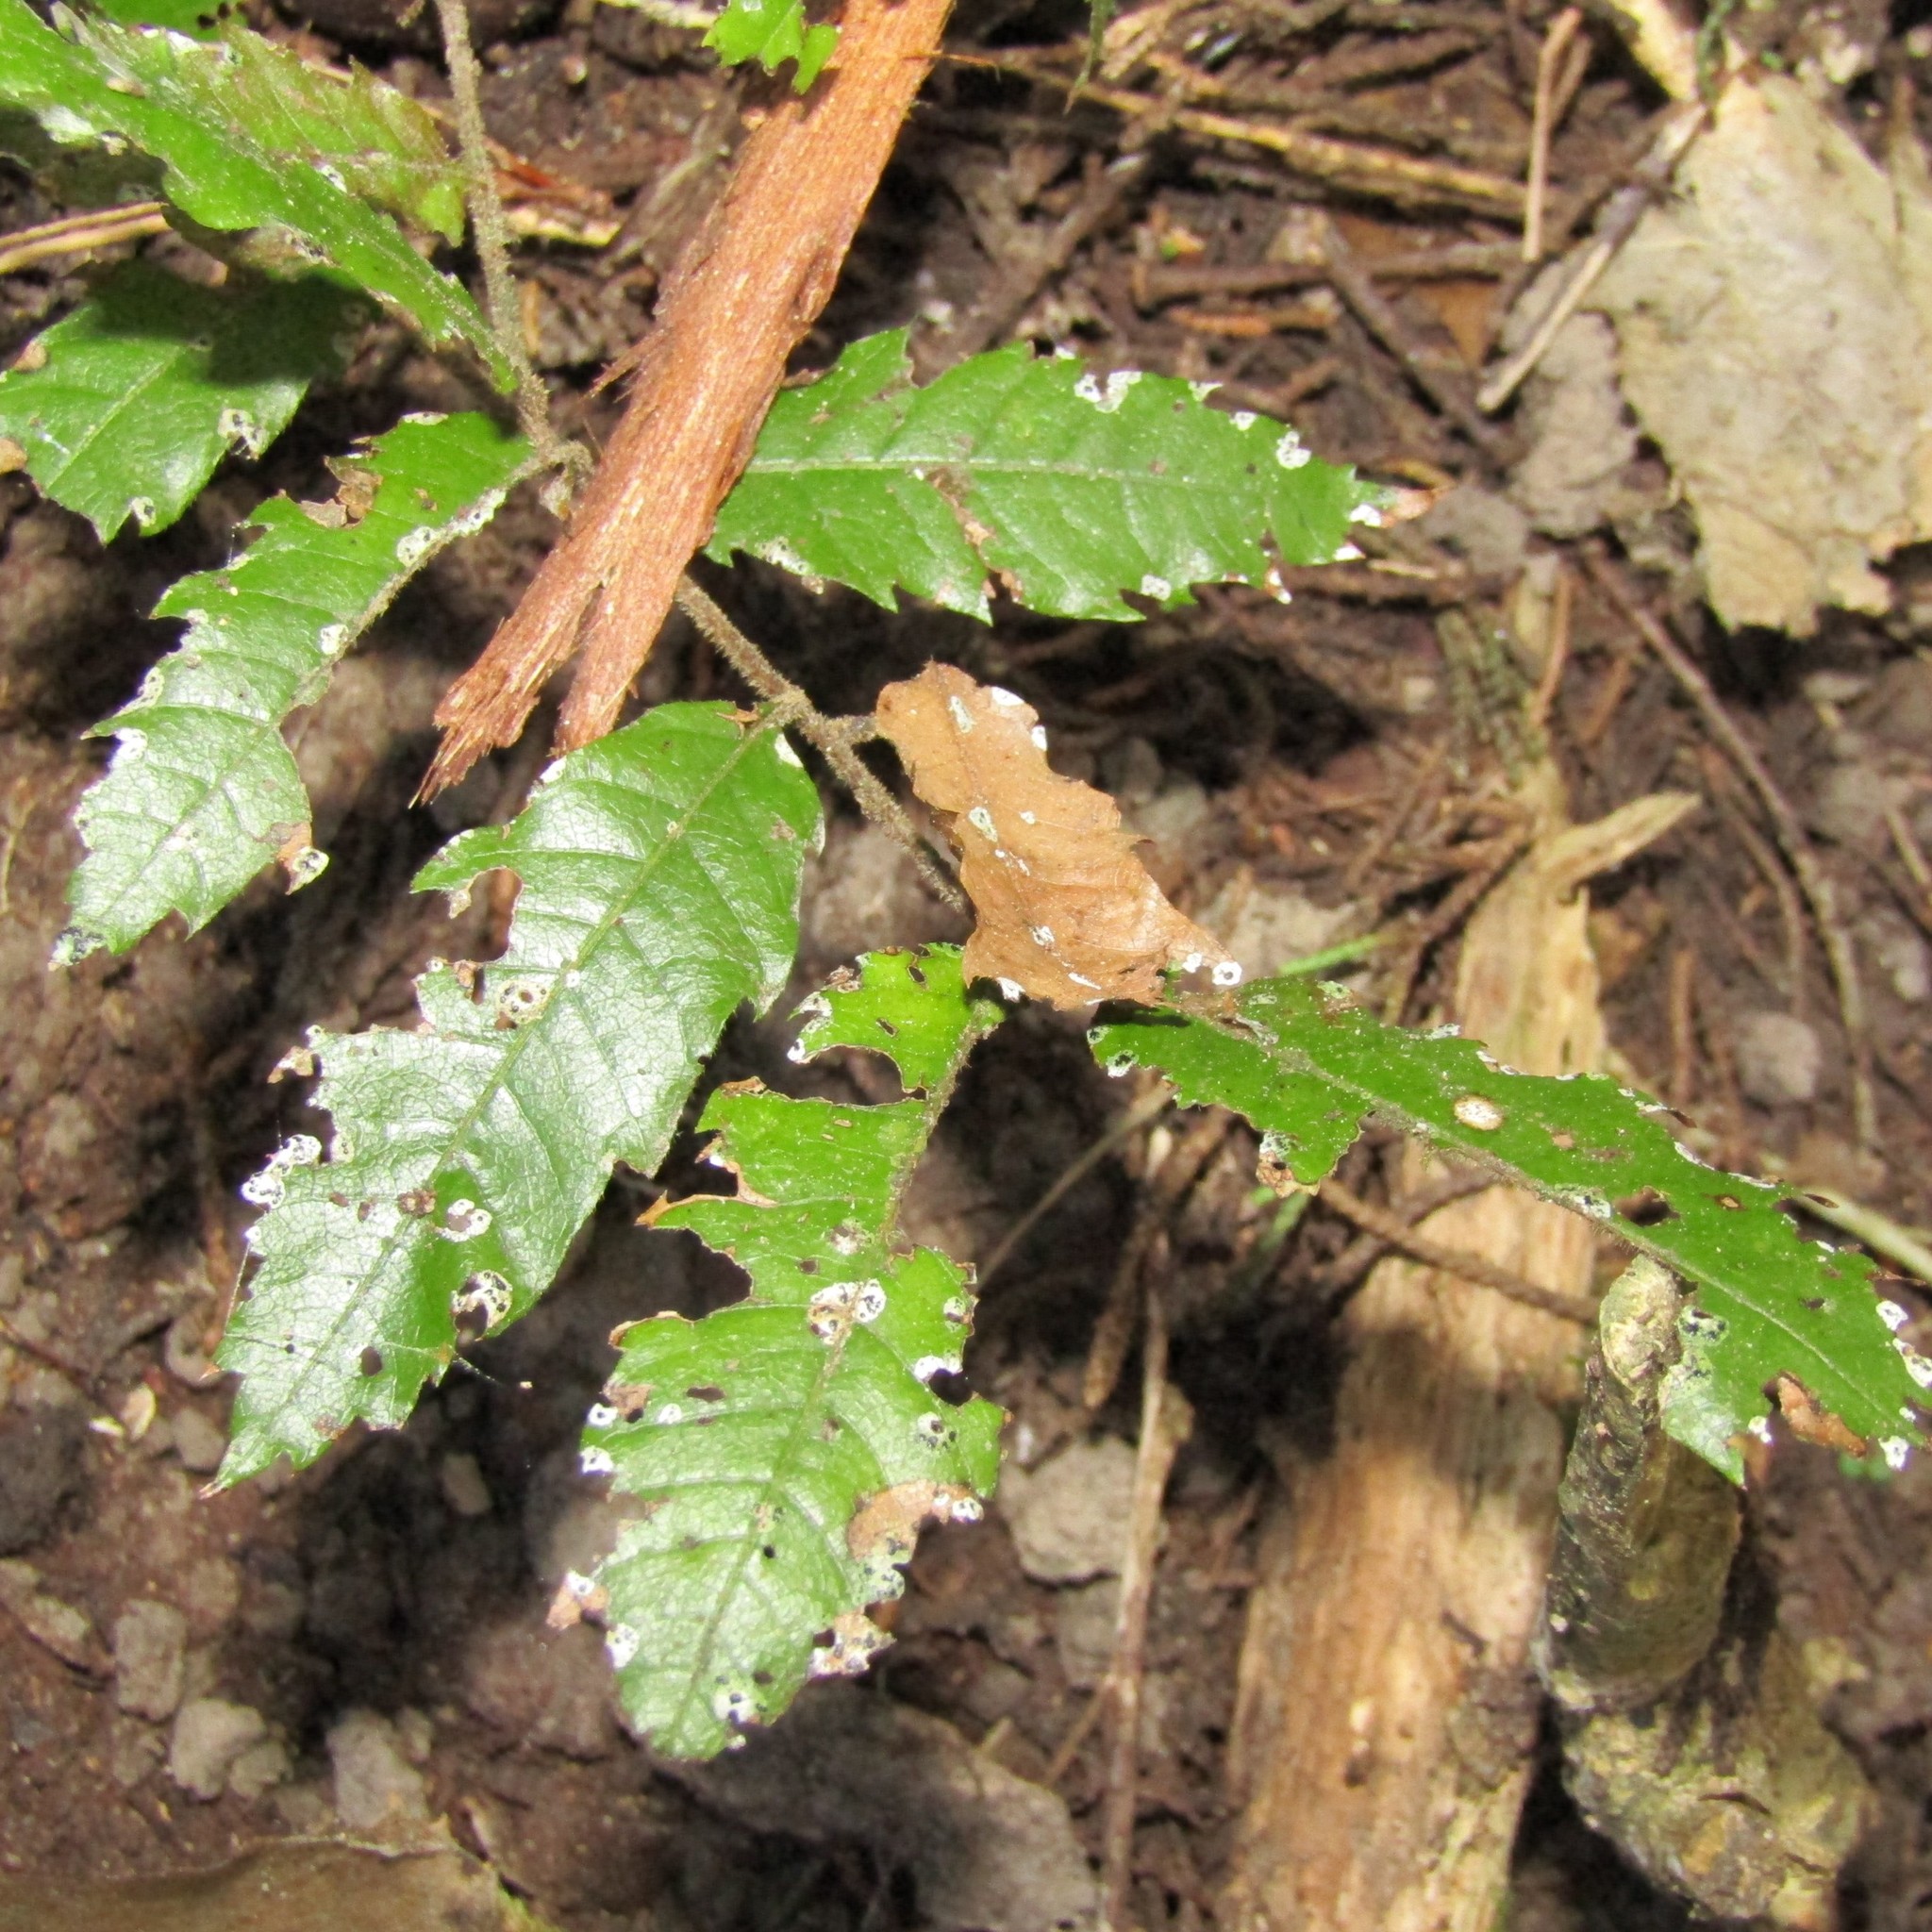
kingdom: Plantae
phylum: Tracheophyta
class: Magnoliopsida
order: Sapindales
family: Sapindaceae
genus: Alectryon
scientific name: Alectryon excelsus
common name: Three kings titoki
